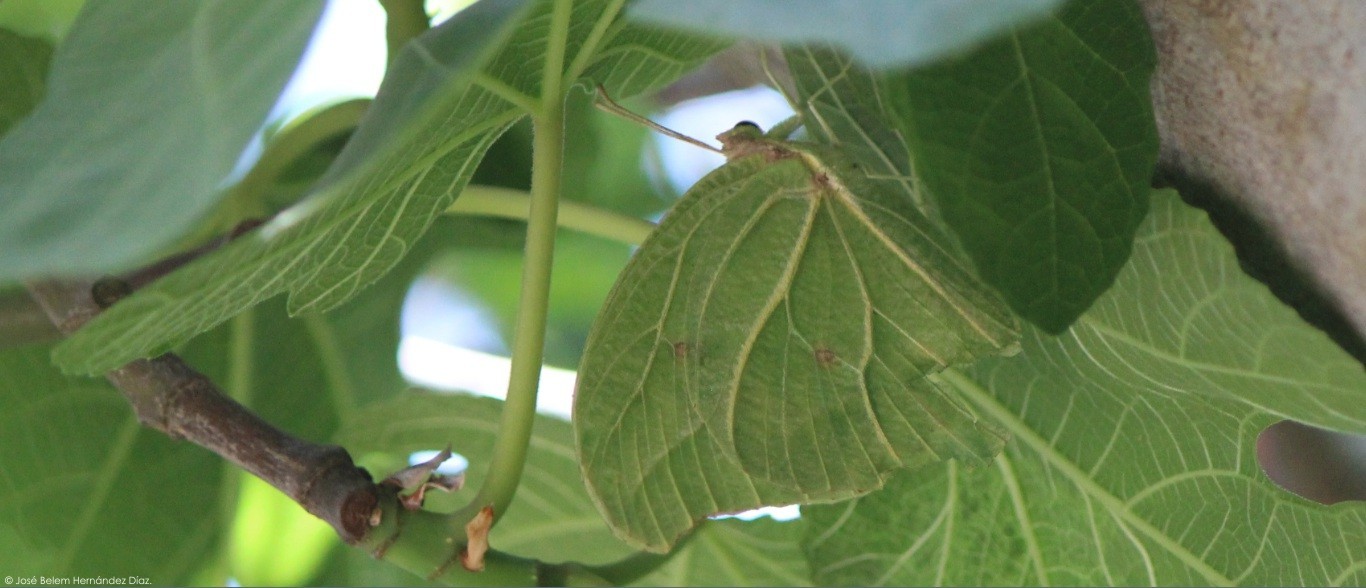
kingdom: Animalia
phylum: Arthropoda
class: Insecta
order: Lepidoptera
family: Pieridae
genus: Anteos
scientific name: Anteos clorinde
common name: White angled sulphur
